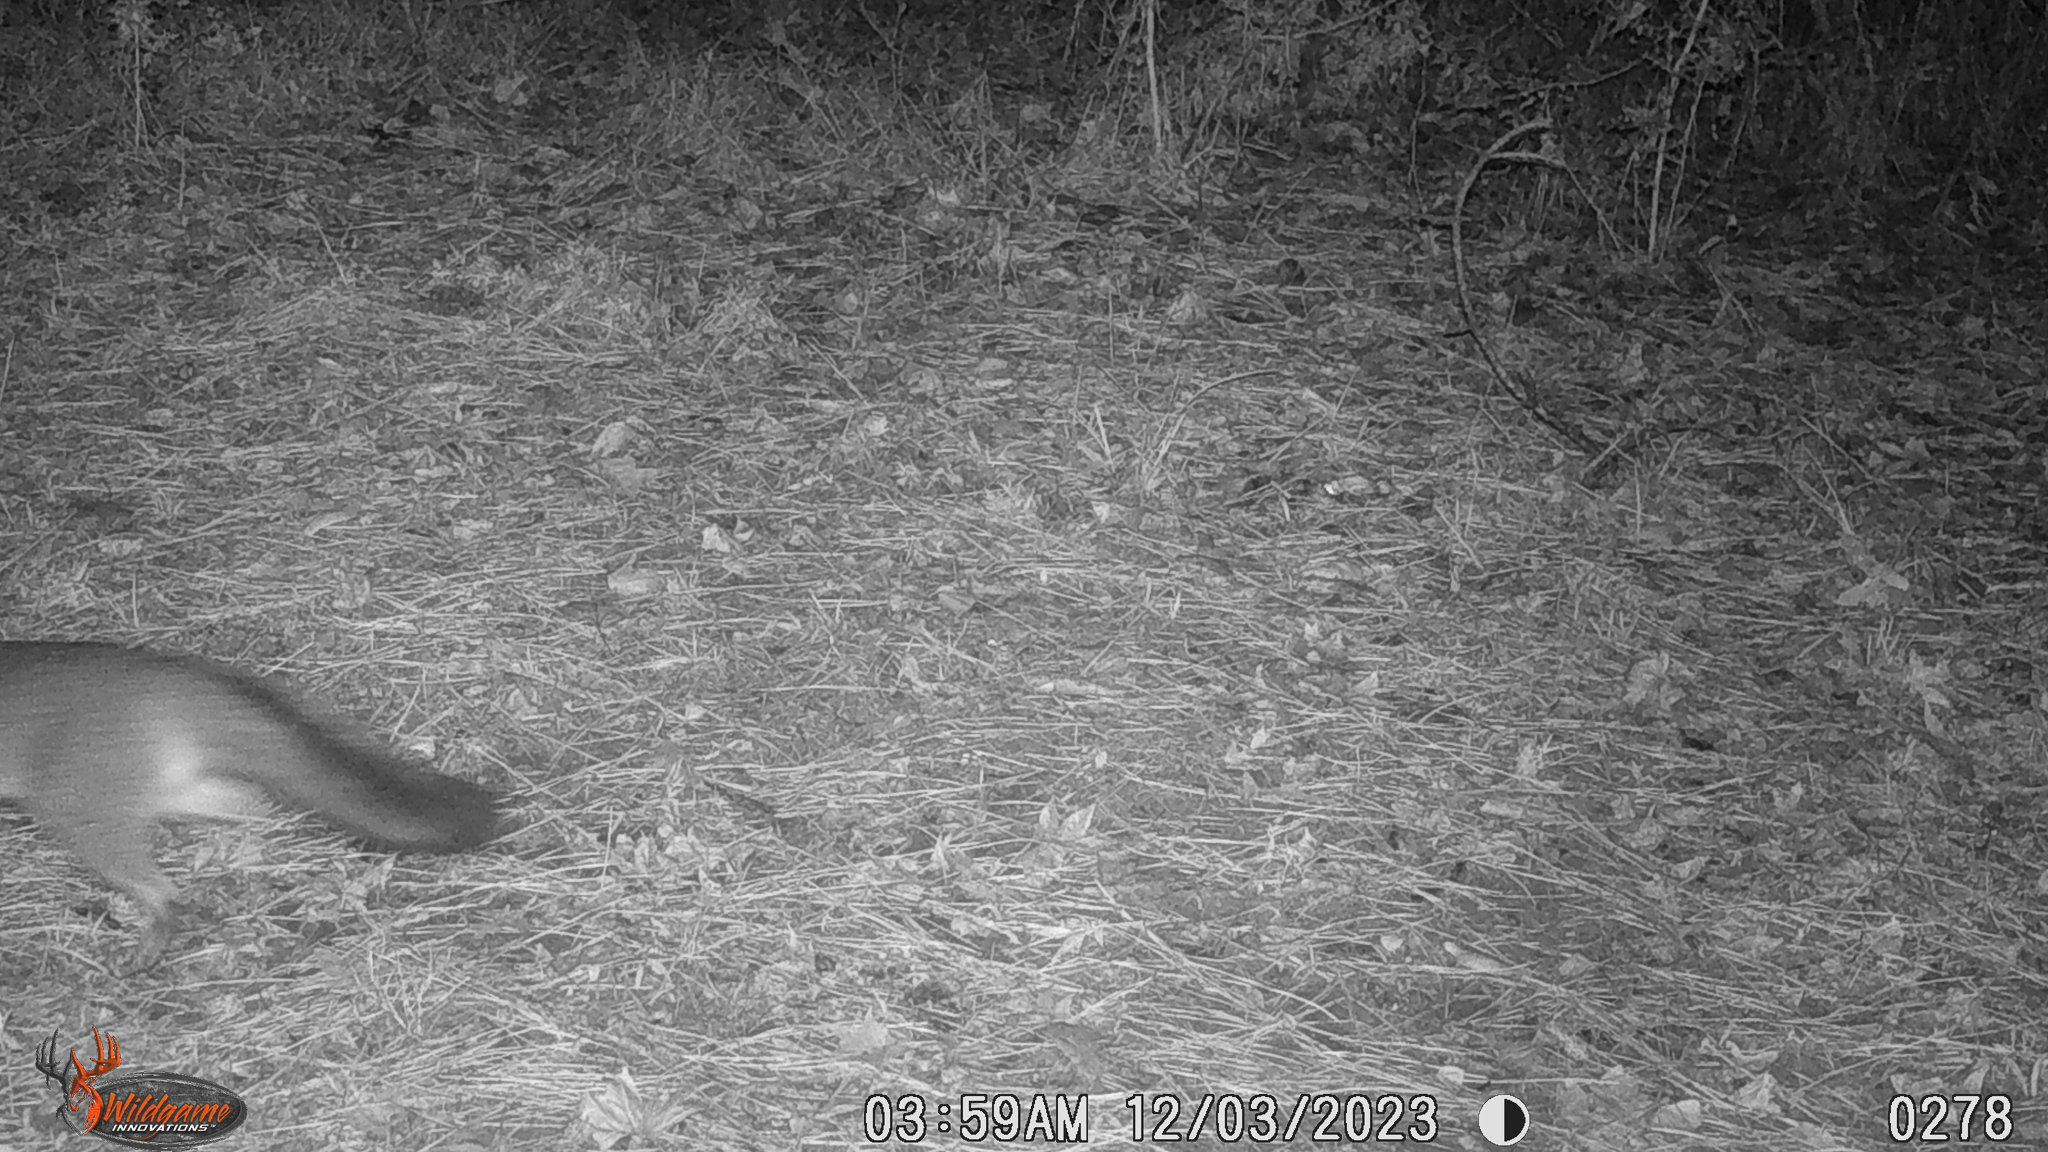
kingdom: Animalia
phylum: Chordata
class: Mammalia
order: Carnivora
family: Canidae
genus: Urocyon
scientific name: Urocyon cinereoargenteus
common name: Gray fox
